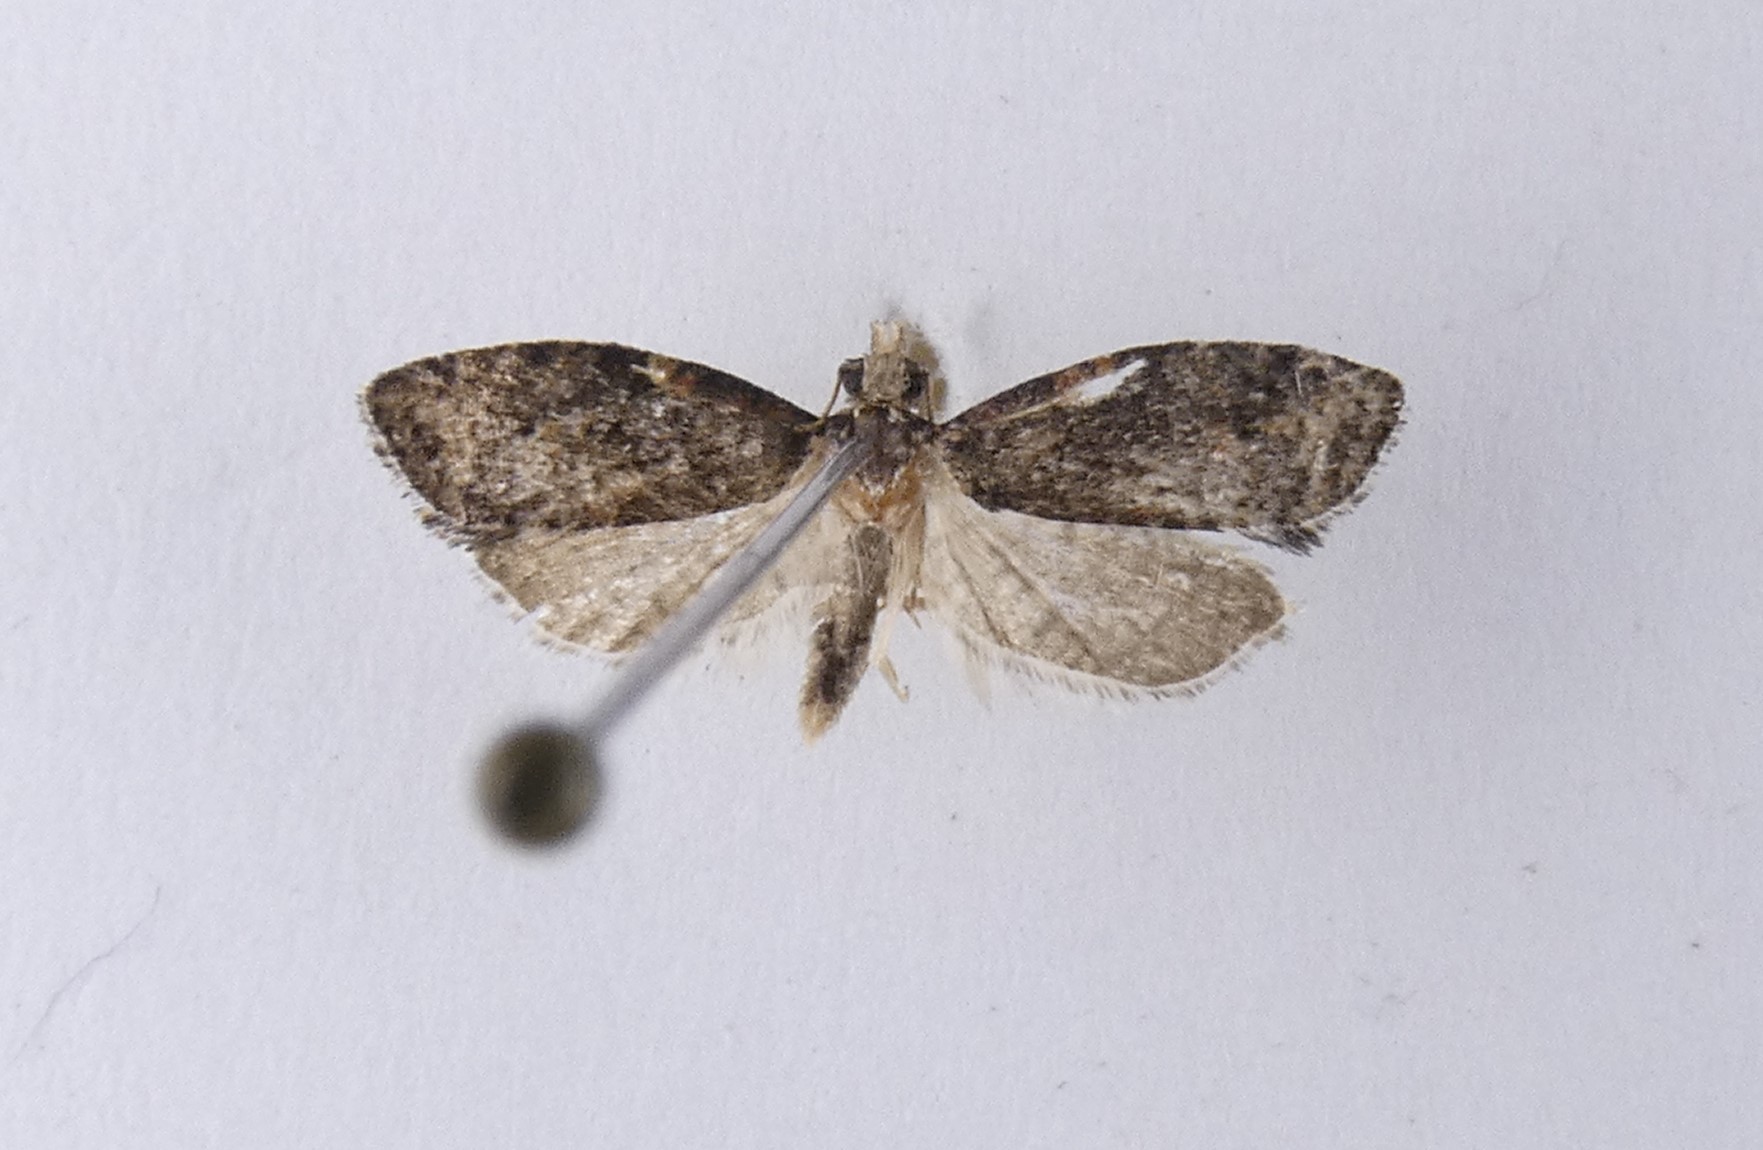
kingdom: Animalia
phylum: Arthropoda
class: Insecta
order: Lepidoptera
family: Tortricidae
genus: Capua
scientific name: Capua intractana
